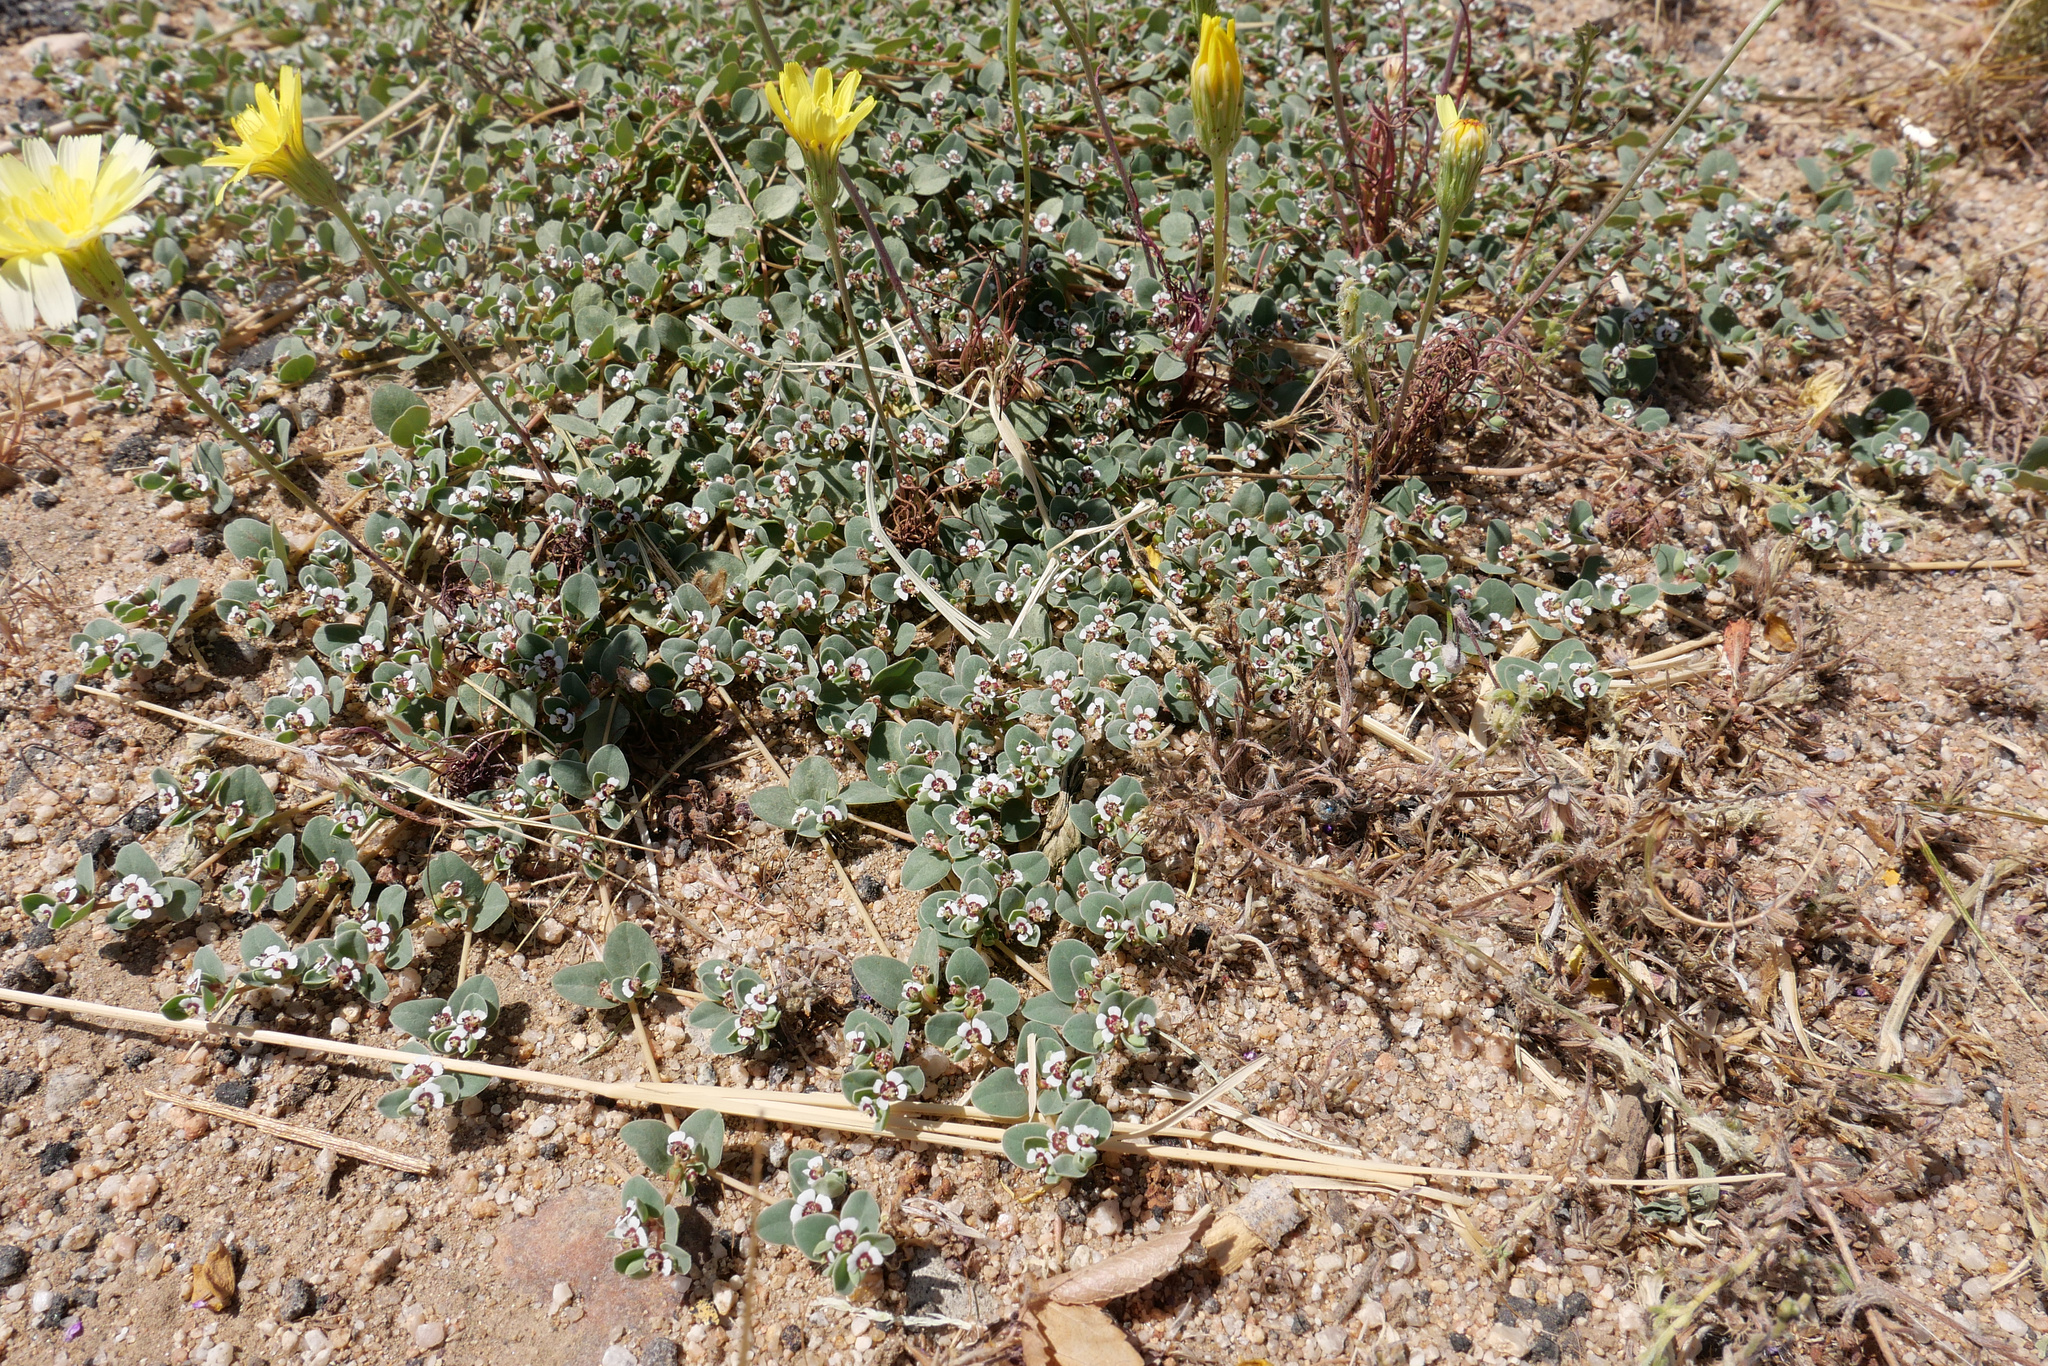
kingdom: Plantae
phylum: Tracheophyta
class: Magnoliopsida
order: Malpighiales
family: Euphorbiaceae
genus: Euphorbia
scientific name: Euphorbia albomarginata
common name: Whitemargin sandmat
